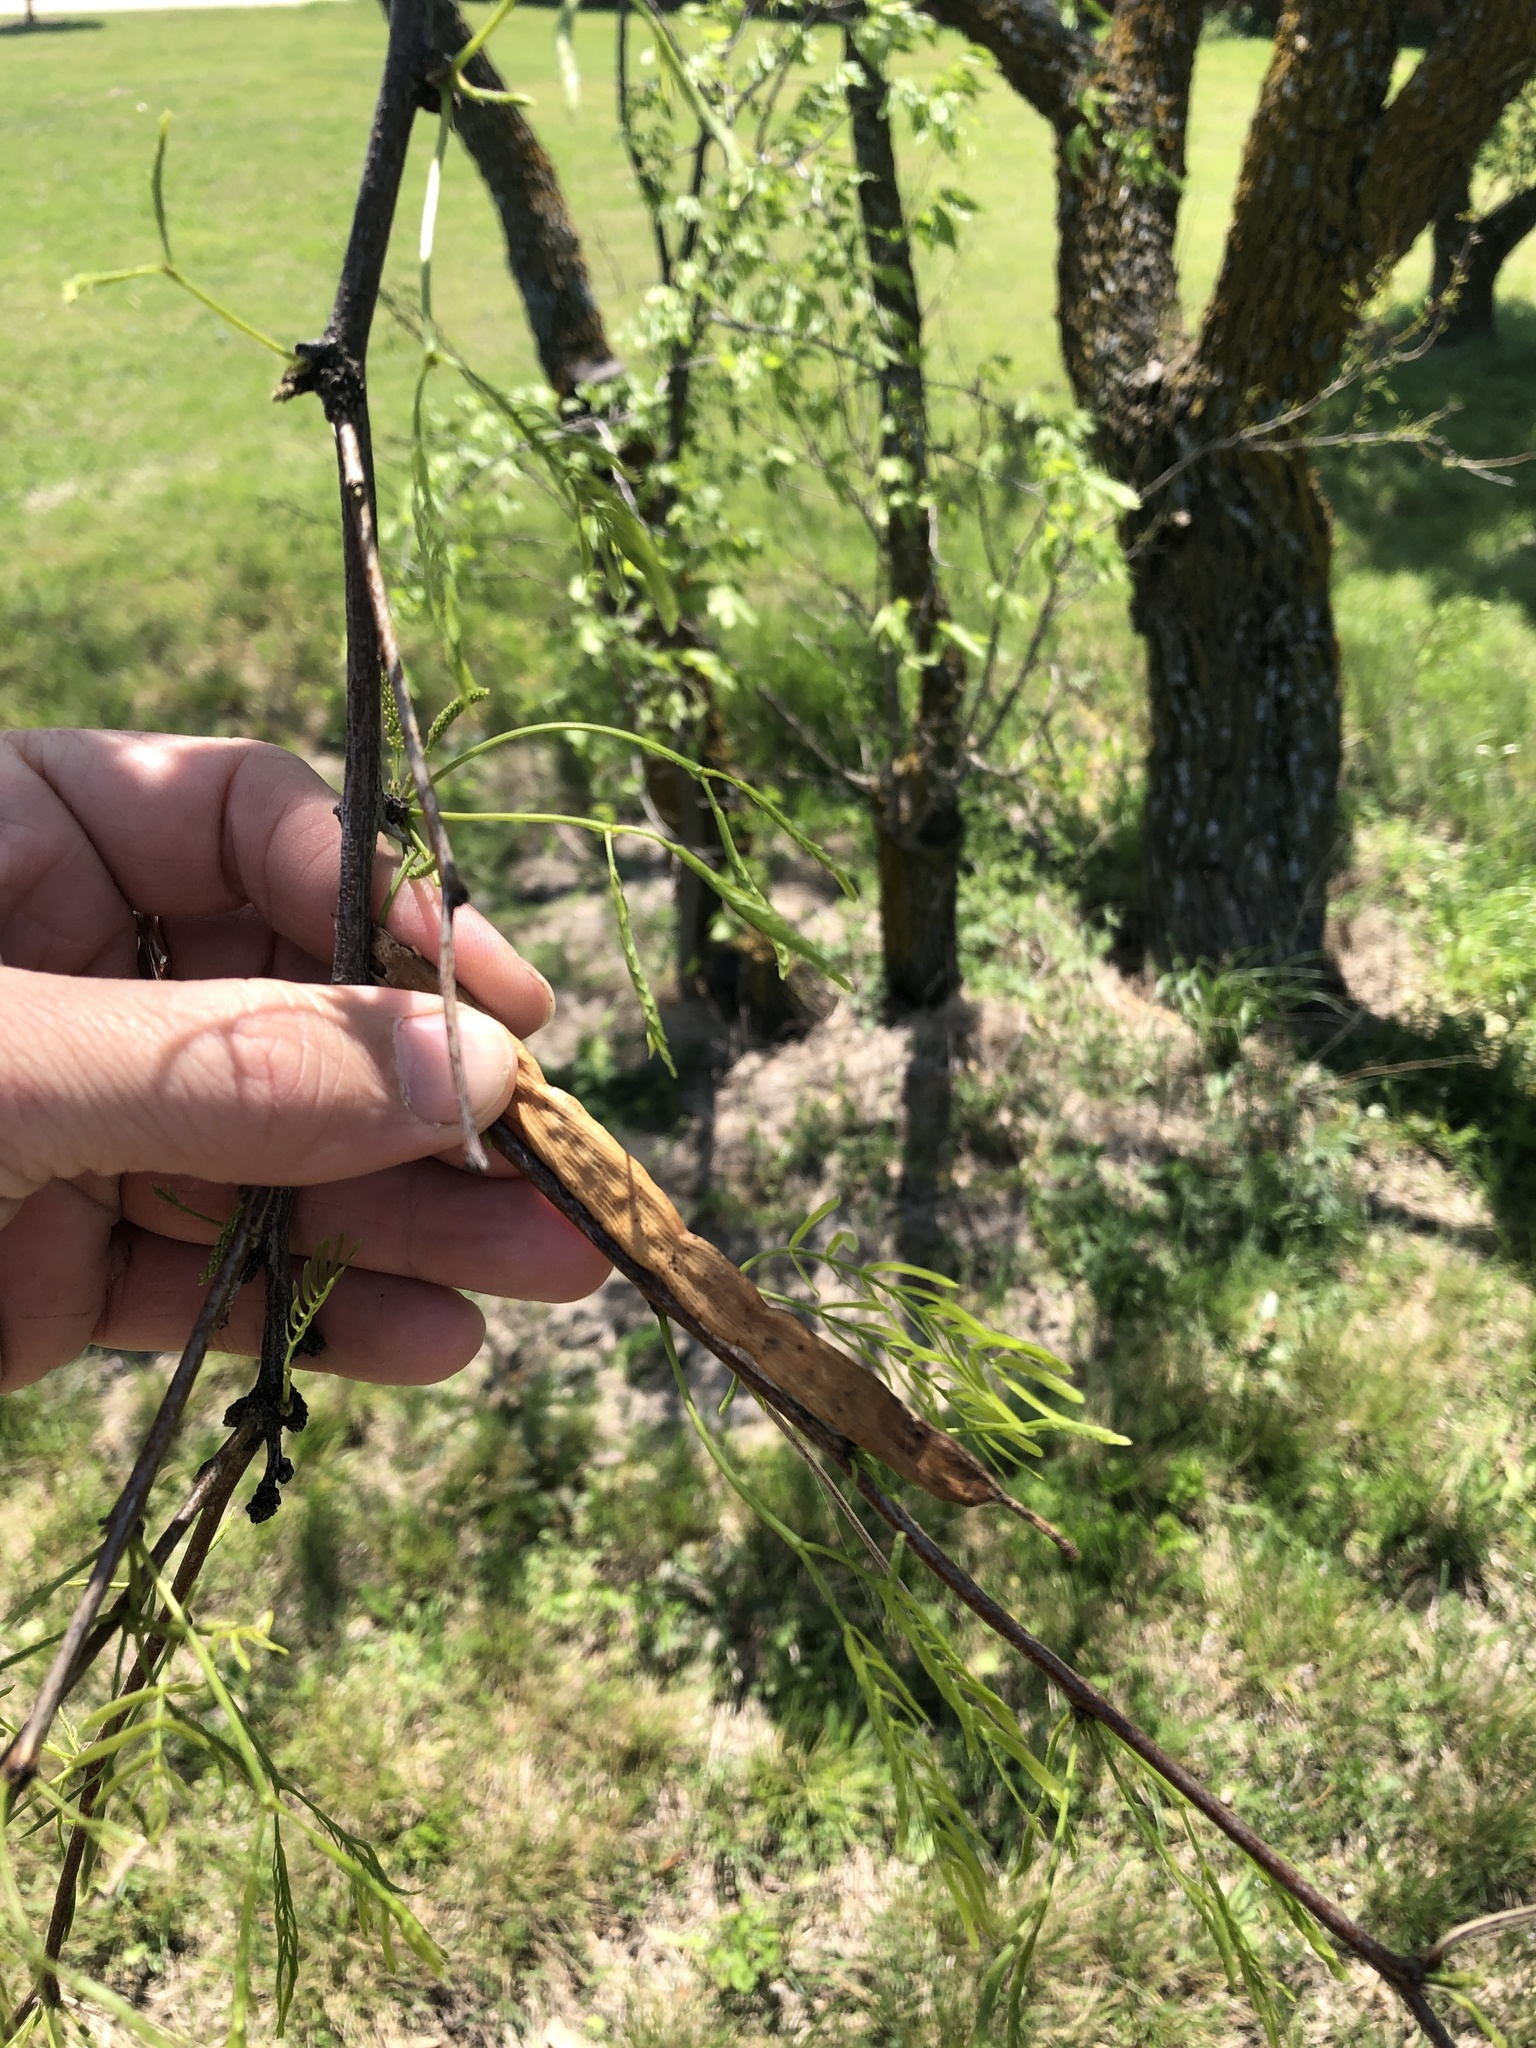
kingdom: Plantae
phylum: Tracheophyta
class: Magnoliopsida
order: Fabales
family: Fabaceae
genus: Prosopis
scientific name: Prosopis glandulosa
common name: Honey mesquite
